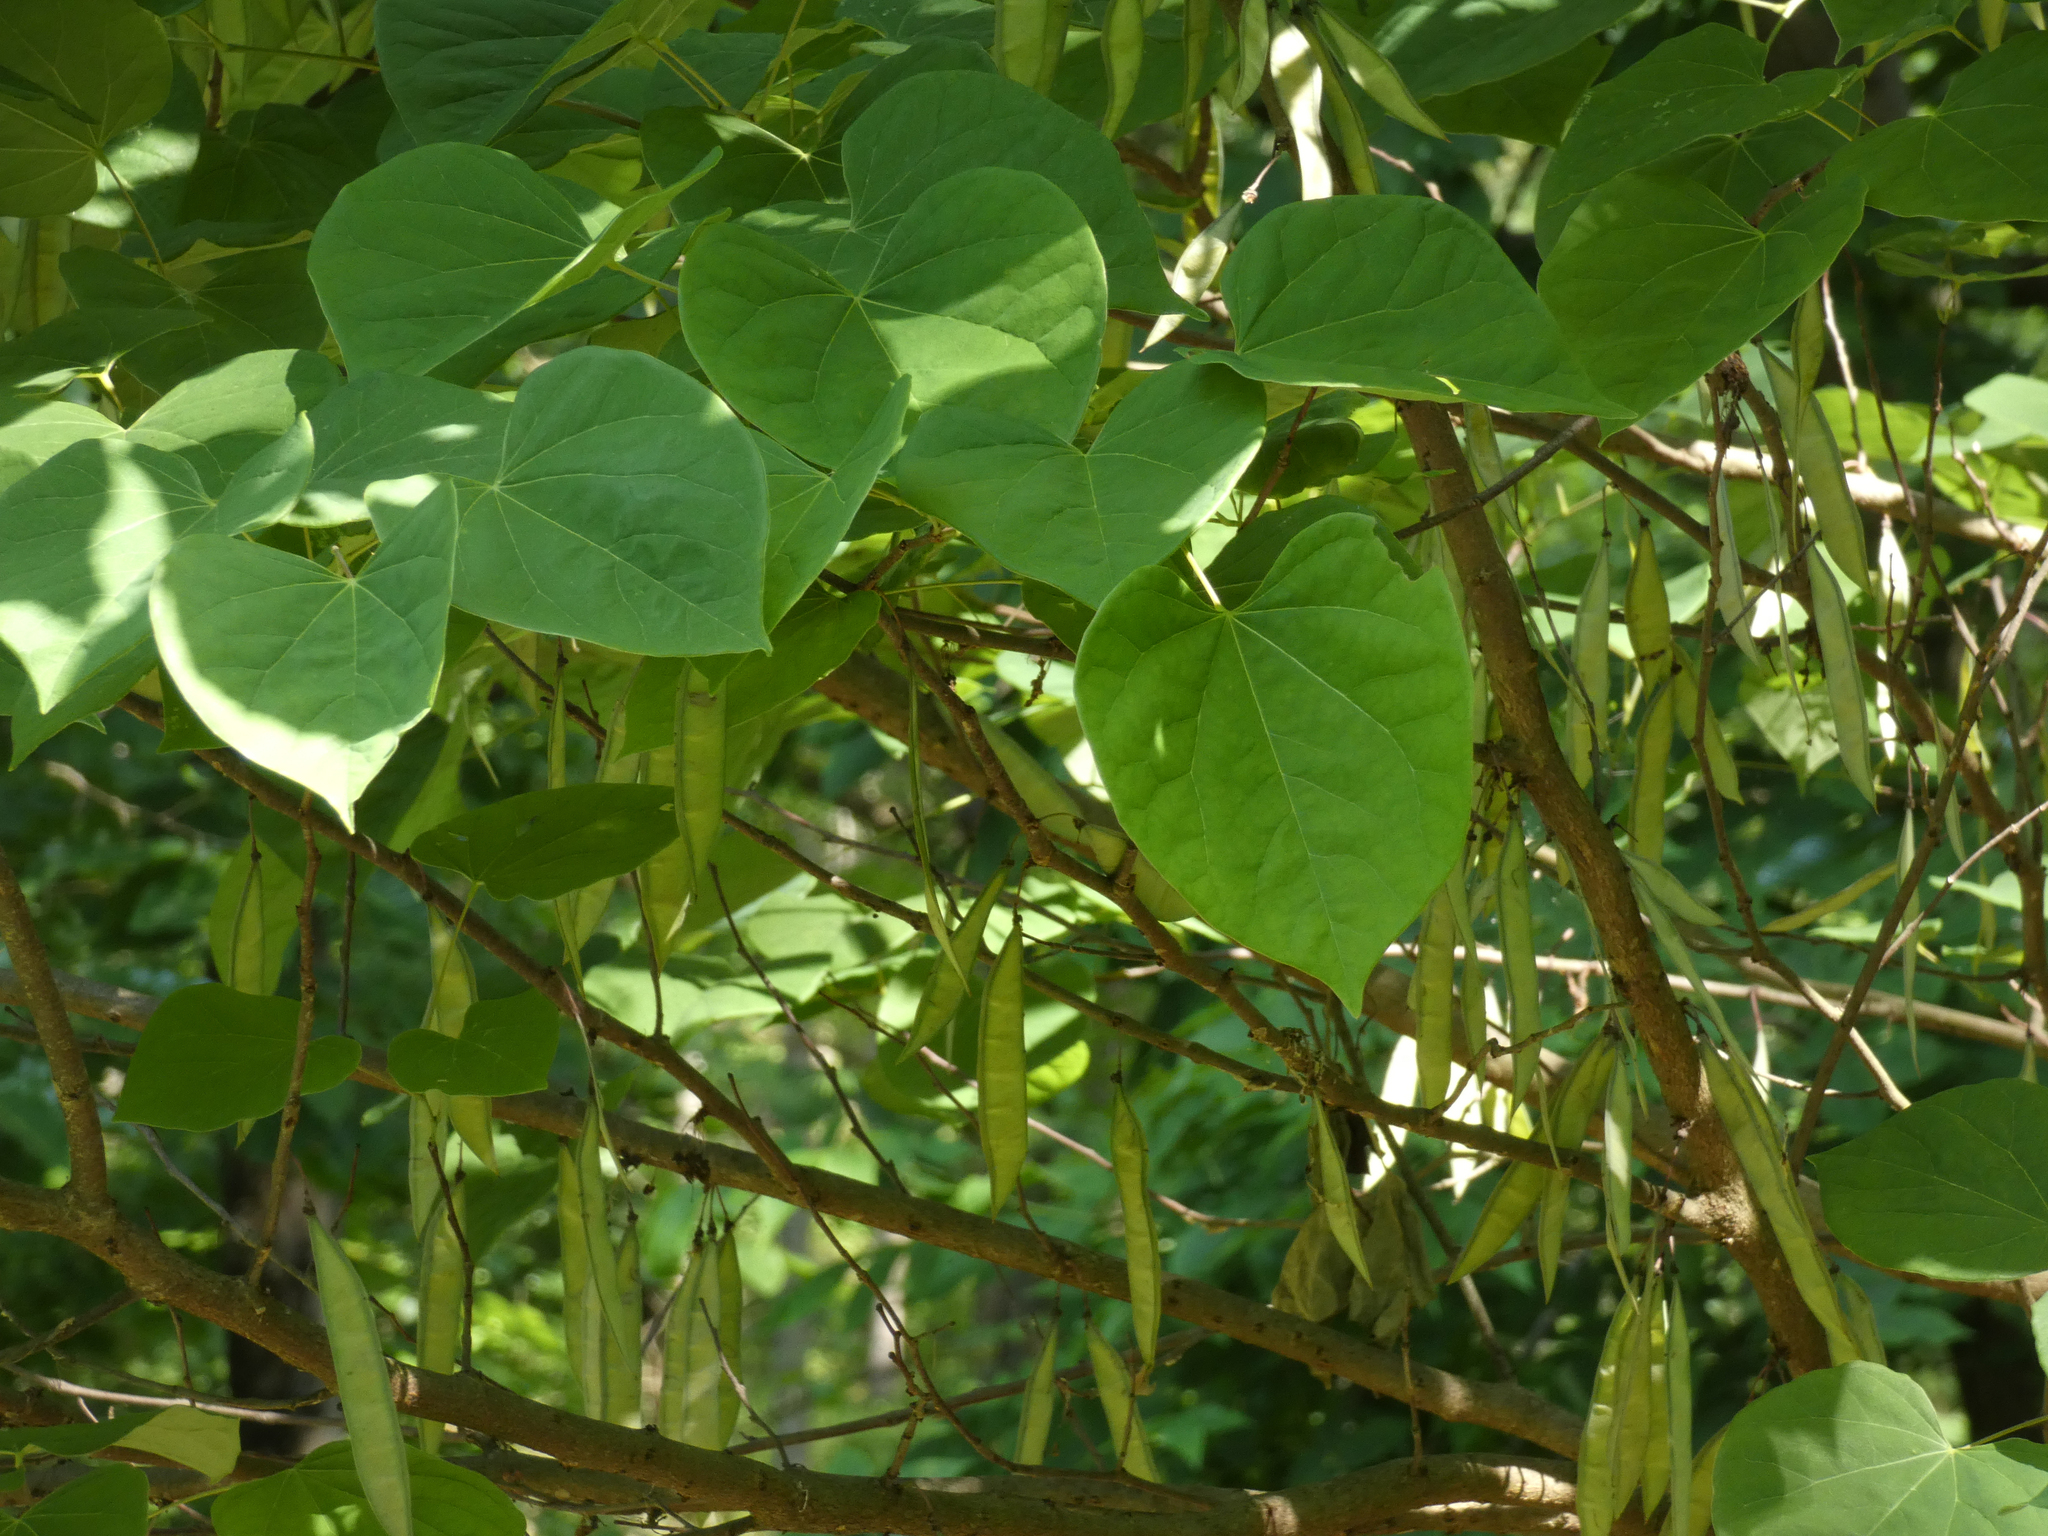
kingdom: Plantae
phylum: Tracheophyta
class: Magnoliopsida
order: Fabales
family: Fabaceae
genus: Cercis
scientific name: Cercis canadensis
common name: Eastern redbud
